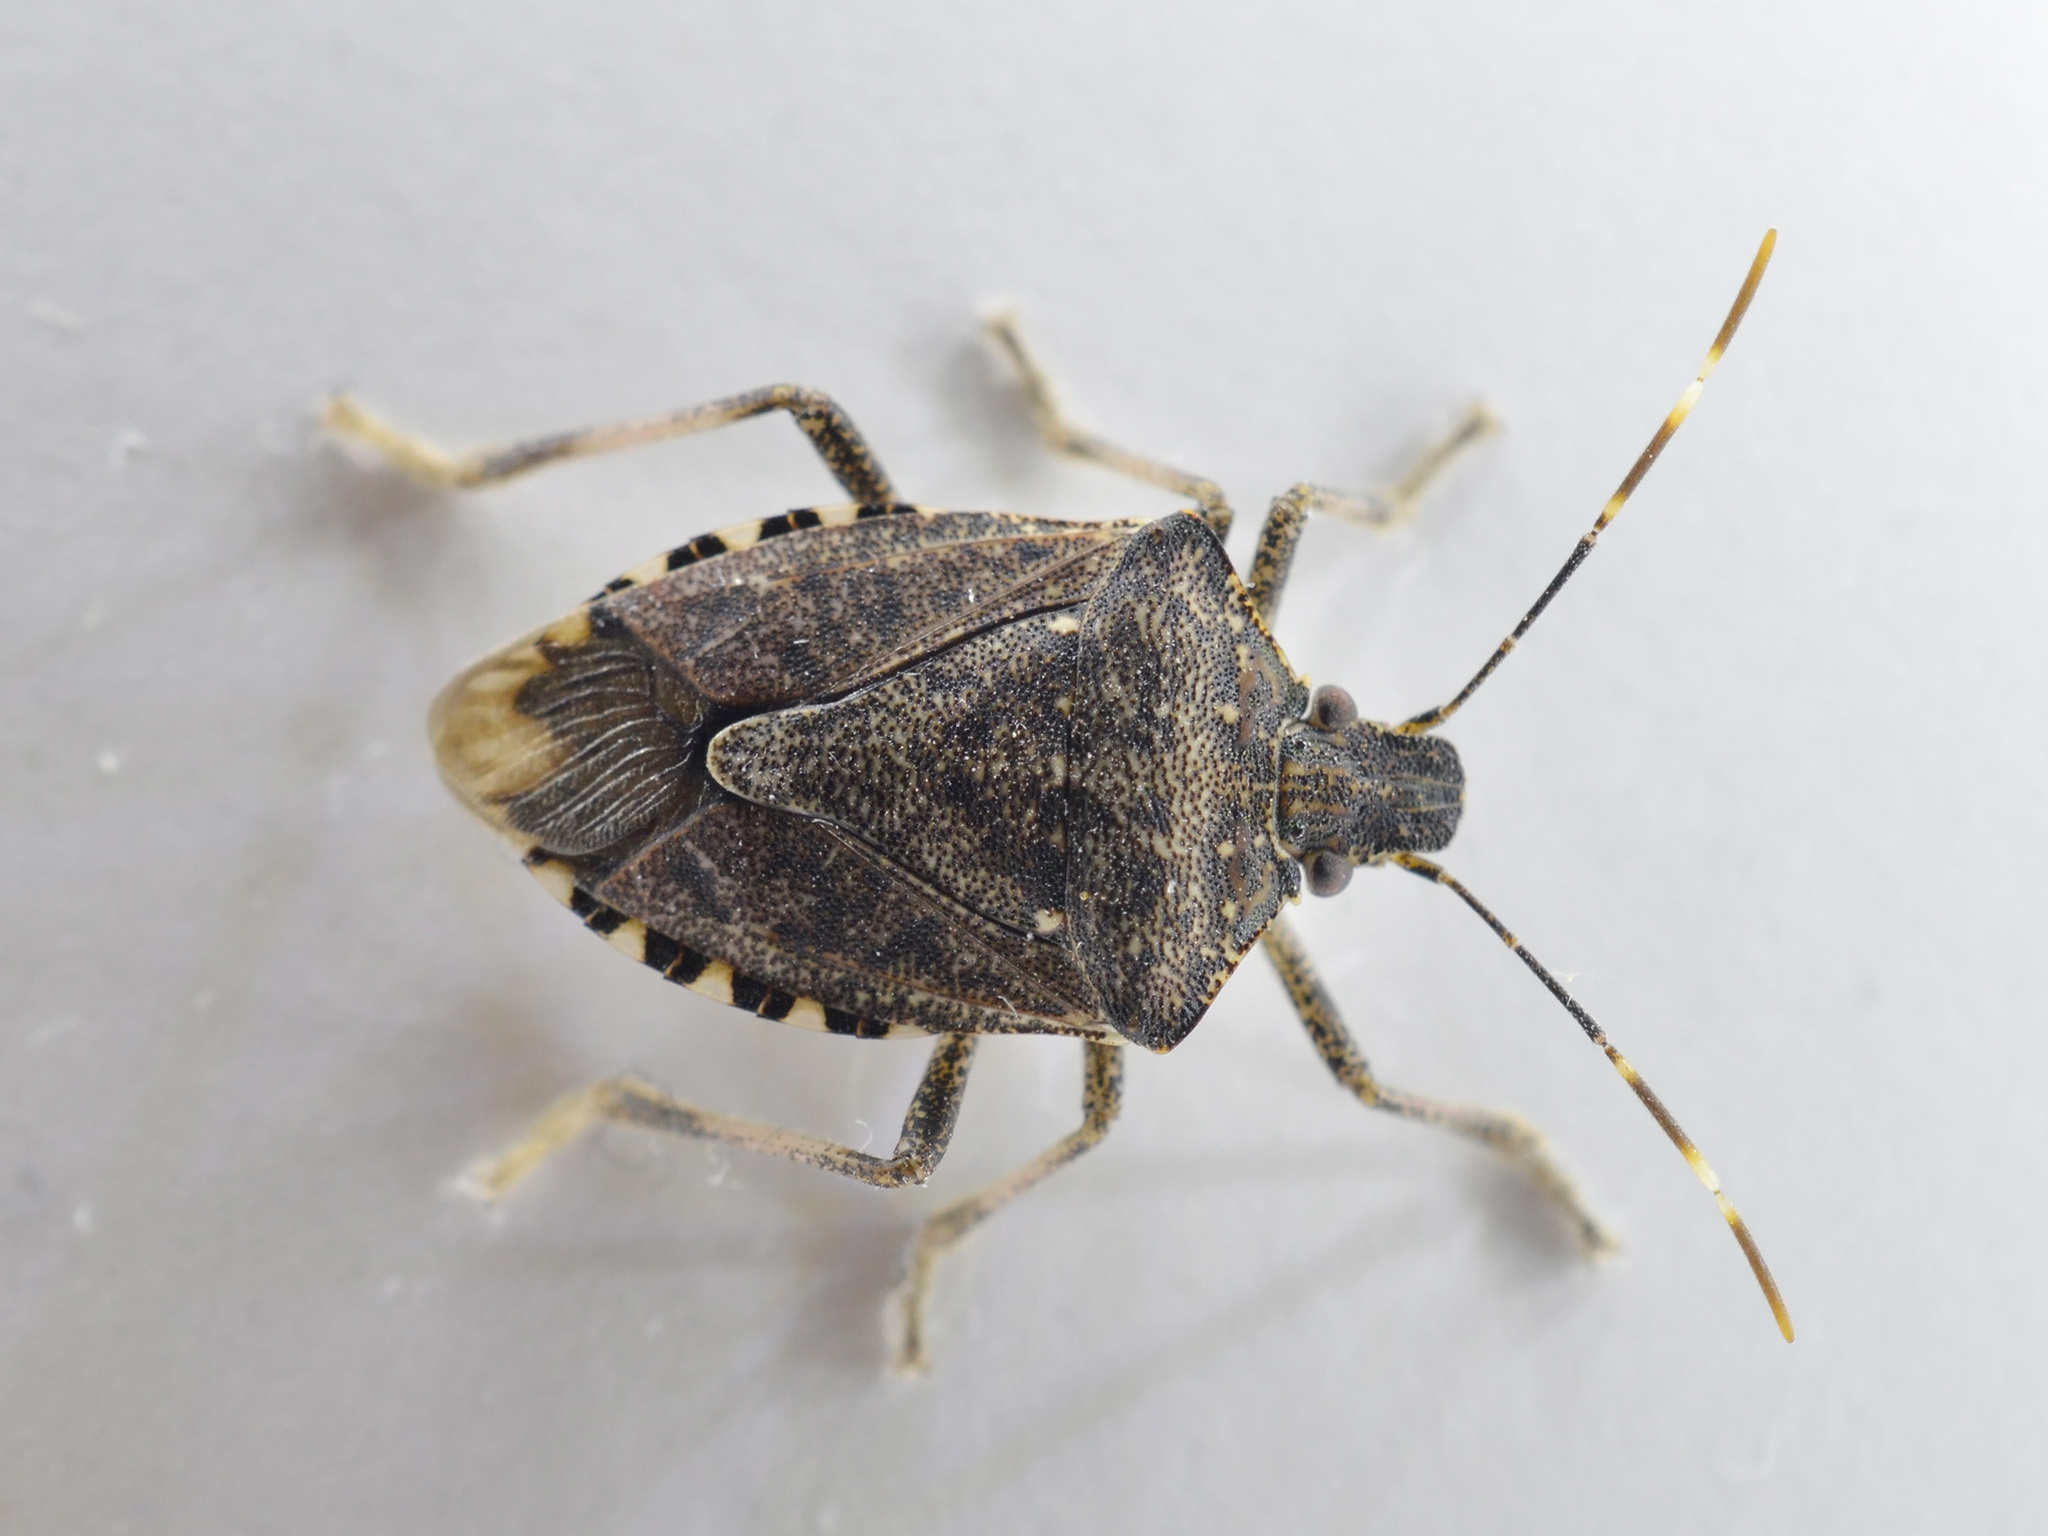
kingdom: Animalia
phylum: Arthropoda
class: Insecta
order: Hemiptera
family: Pentatomidae
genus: Halyomorpha
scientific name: Halyomorpha halys
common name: Brown marmorated stink bug
